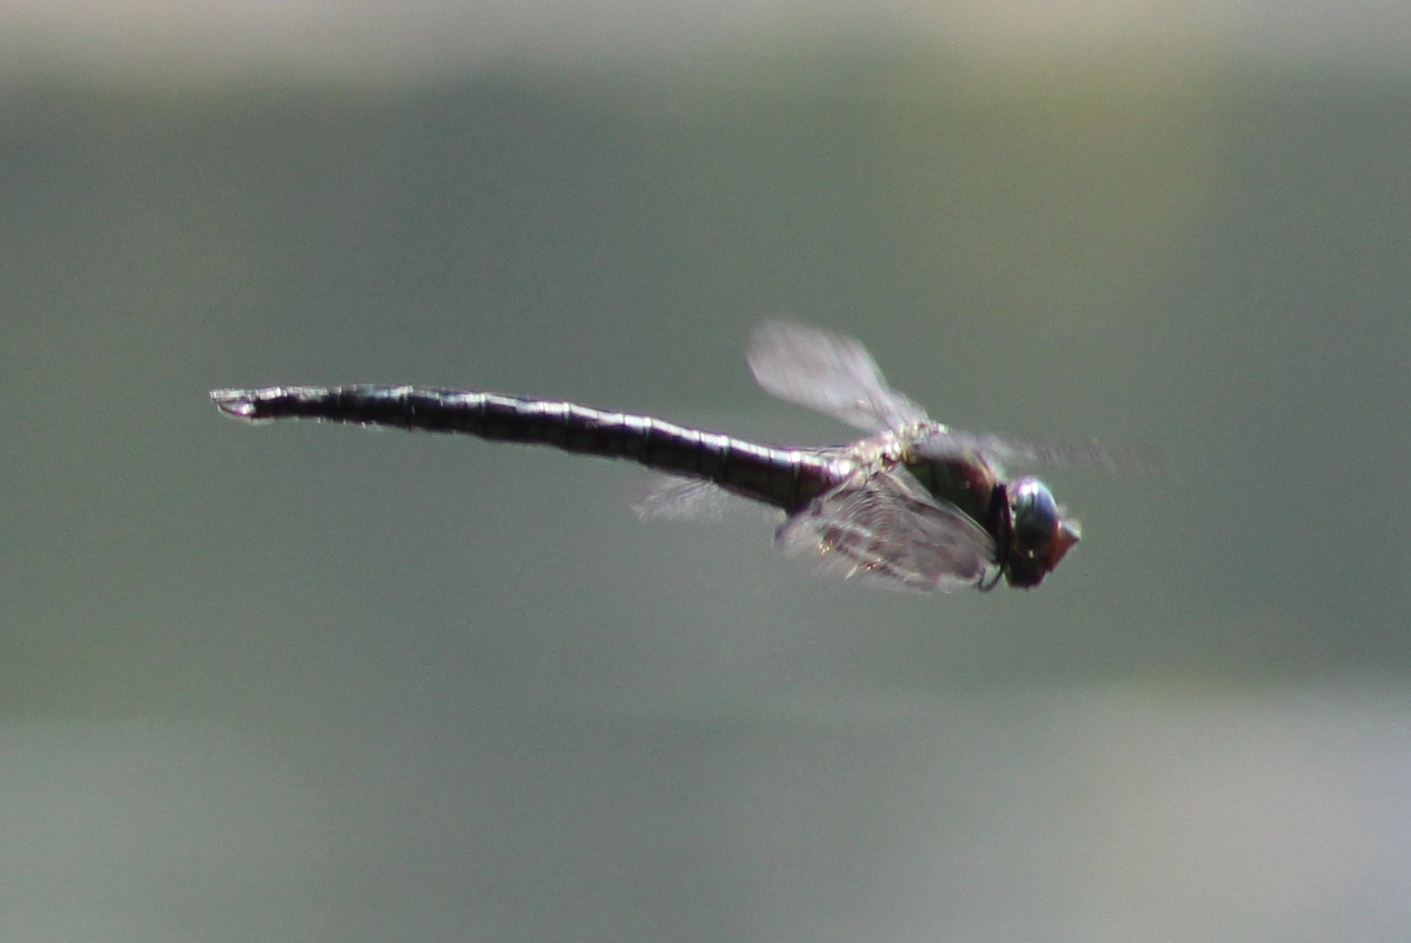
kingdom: Animalia
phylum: Arthropoda
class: Insecta
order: Odonata
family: Aeshnidae
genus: Nasiaeschna
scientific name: Nasiaeschna pentacantha
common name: Cyrano darner
